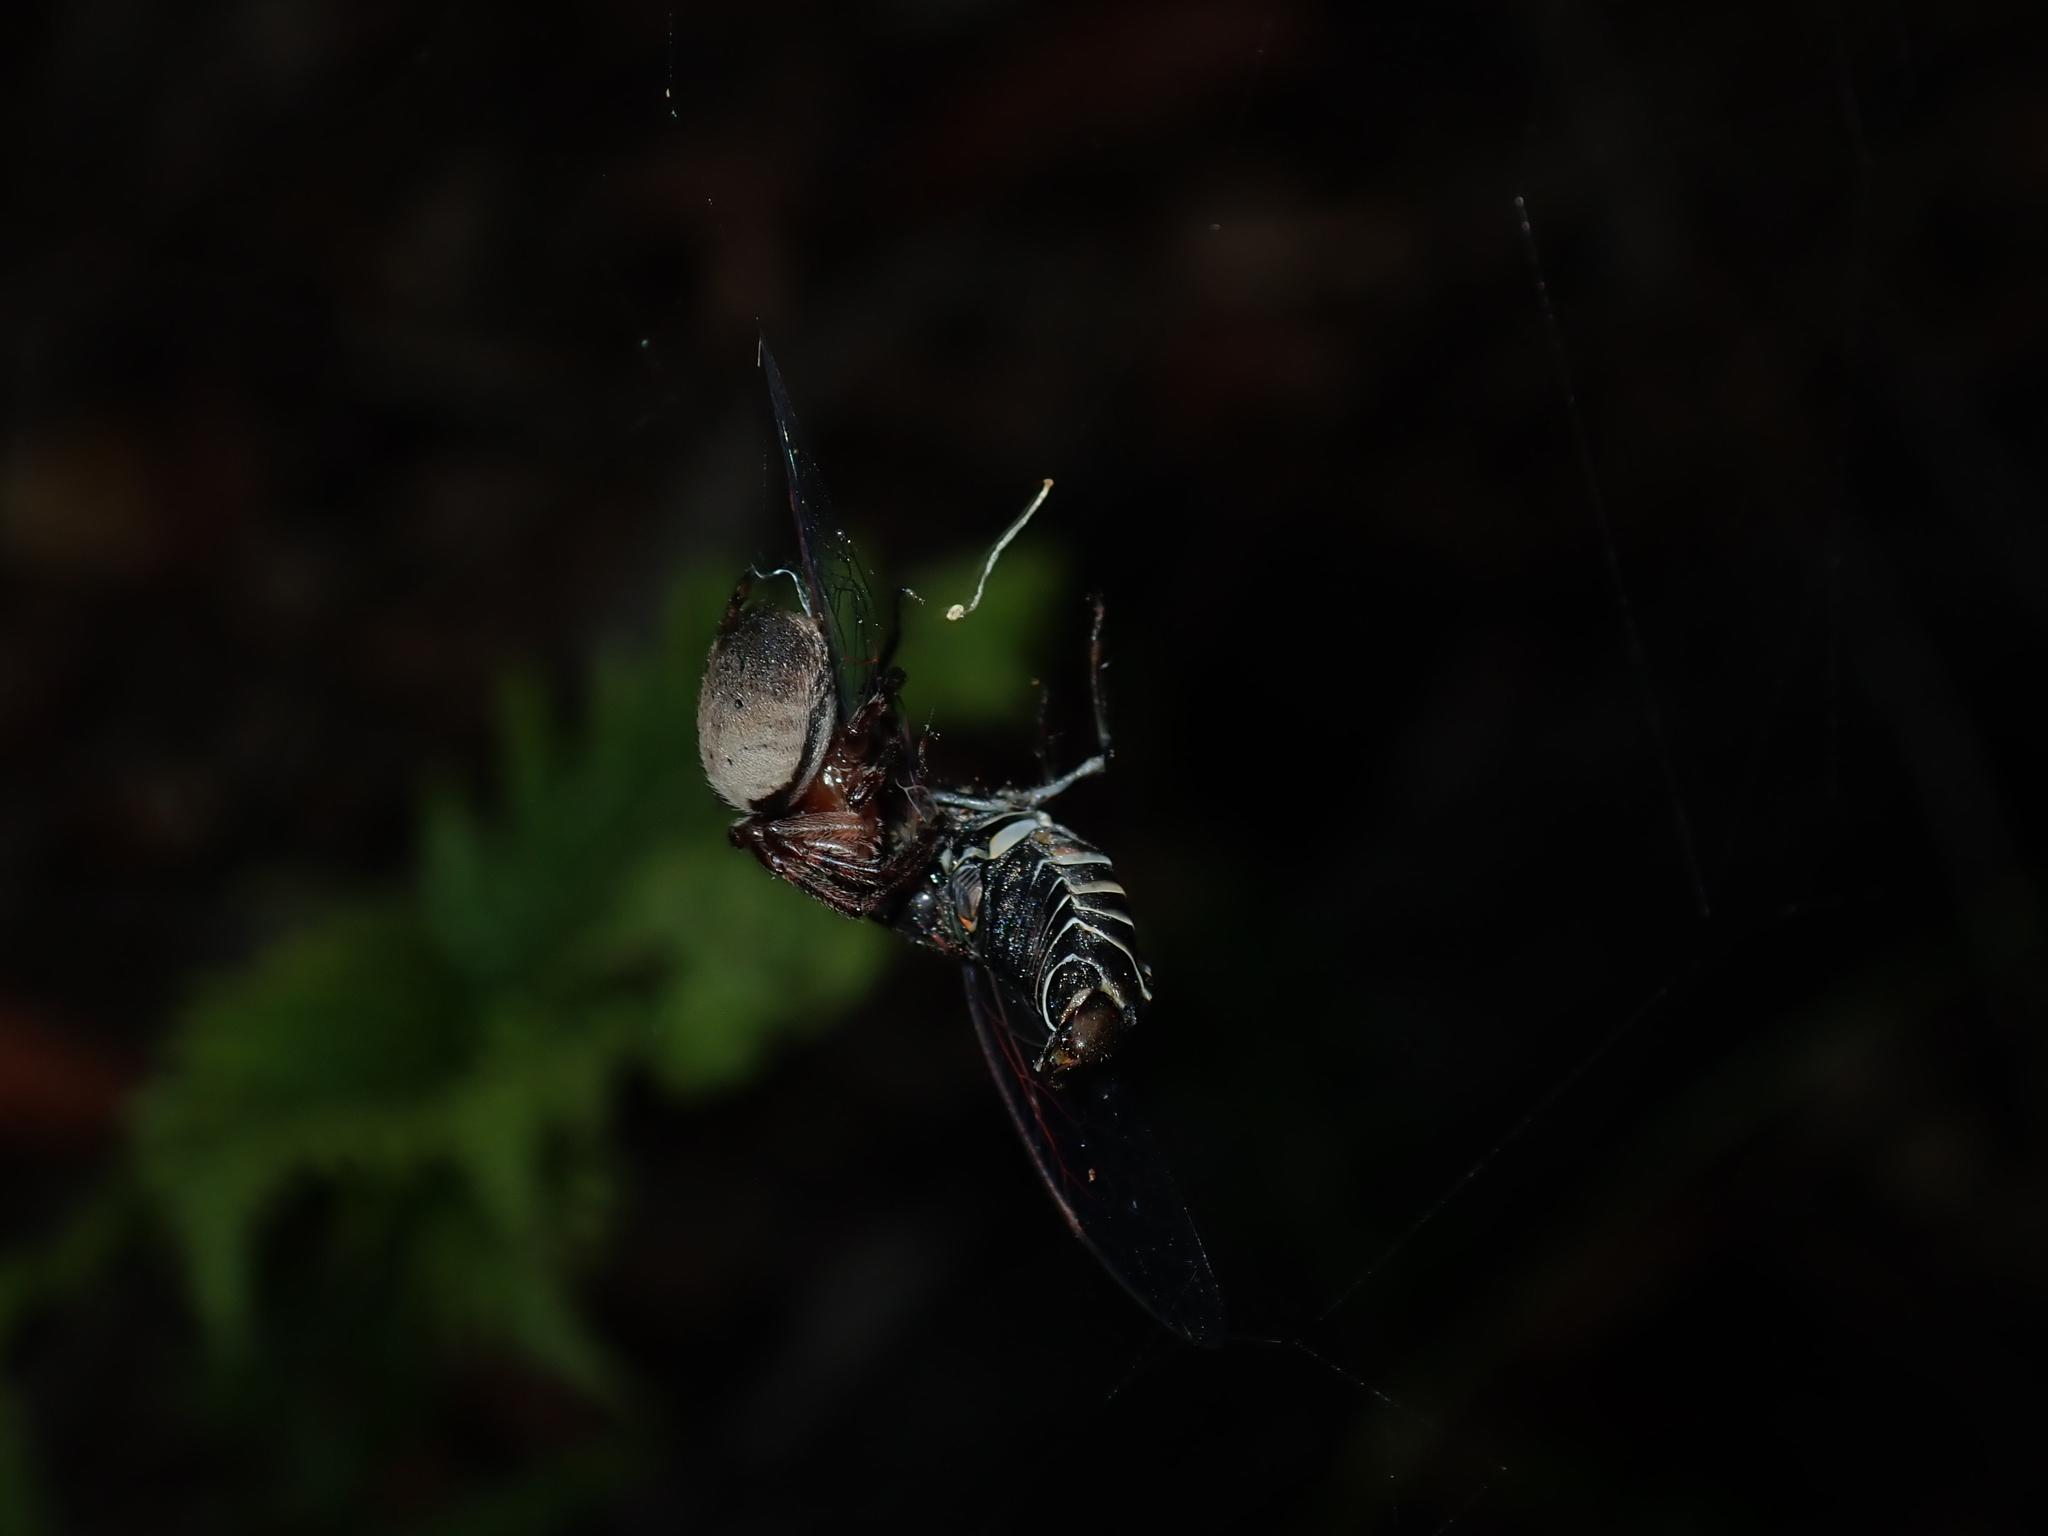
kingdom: Animalia
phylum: Arthropoda
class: Insecta
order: Hemiptera
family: Cicadidae
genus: Atrapsalta
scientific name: Atrapsalta fuscata
